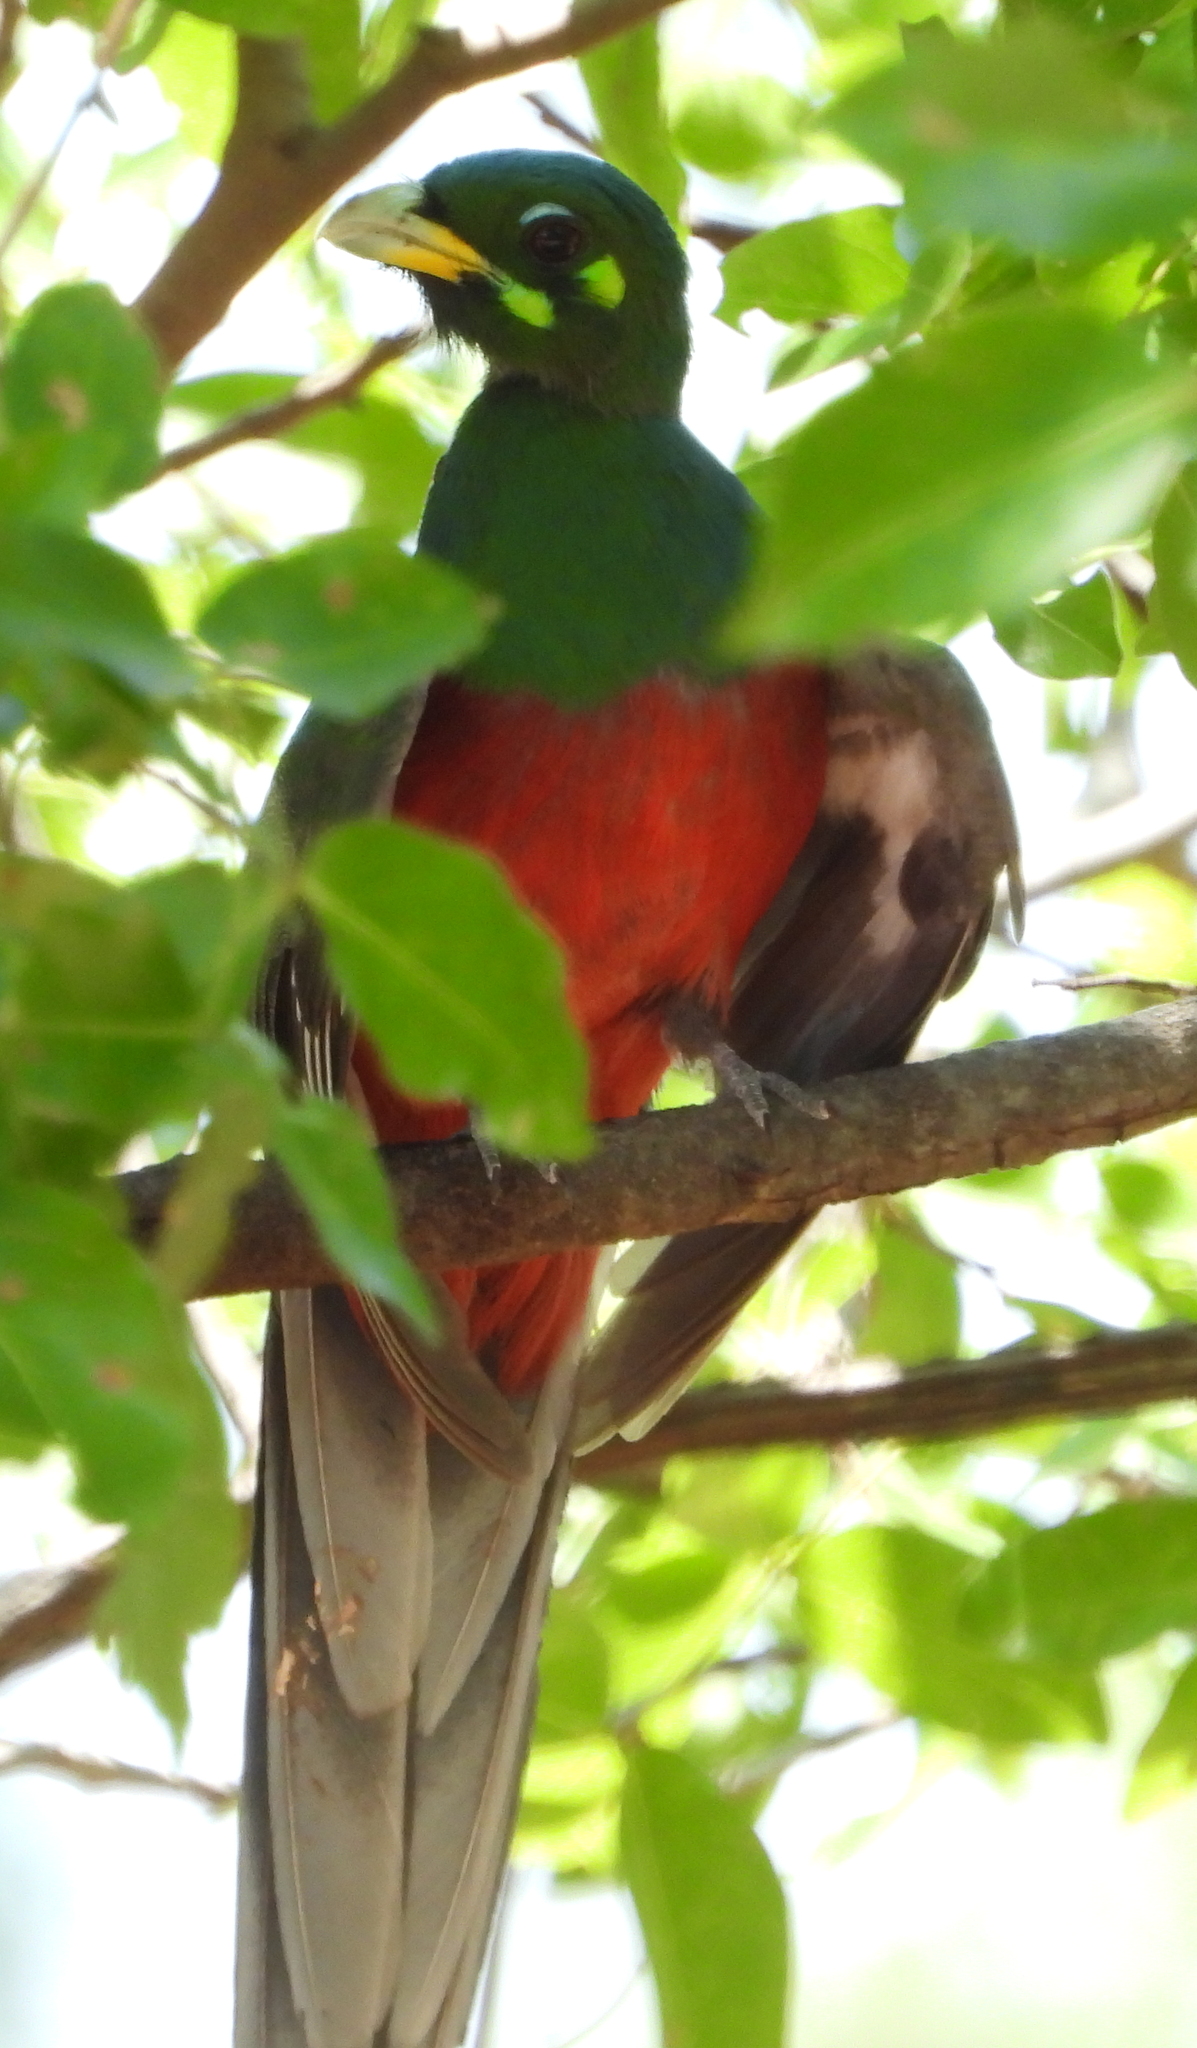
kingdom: Animalia
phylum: Chordata
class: Aves
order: Trogoniformes
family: Trogonidae
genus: Apaloderma
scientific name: Apaloderma narina
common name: Narina trogon
